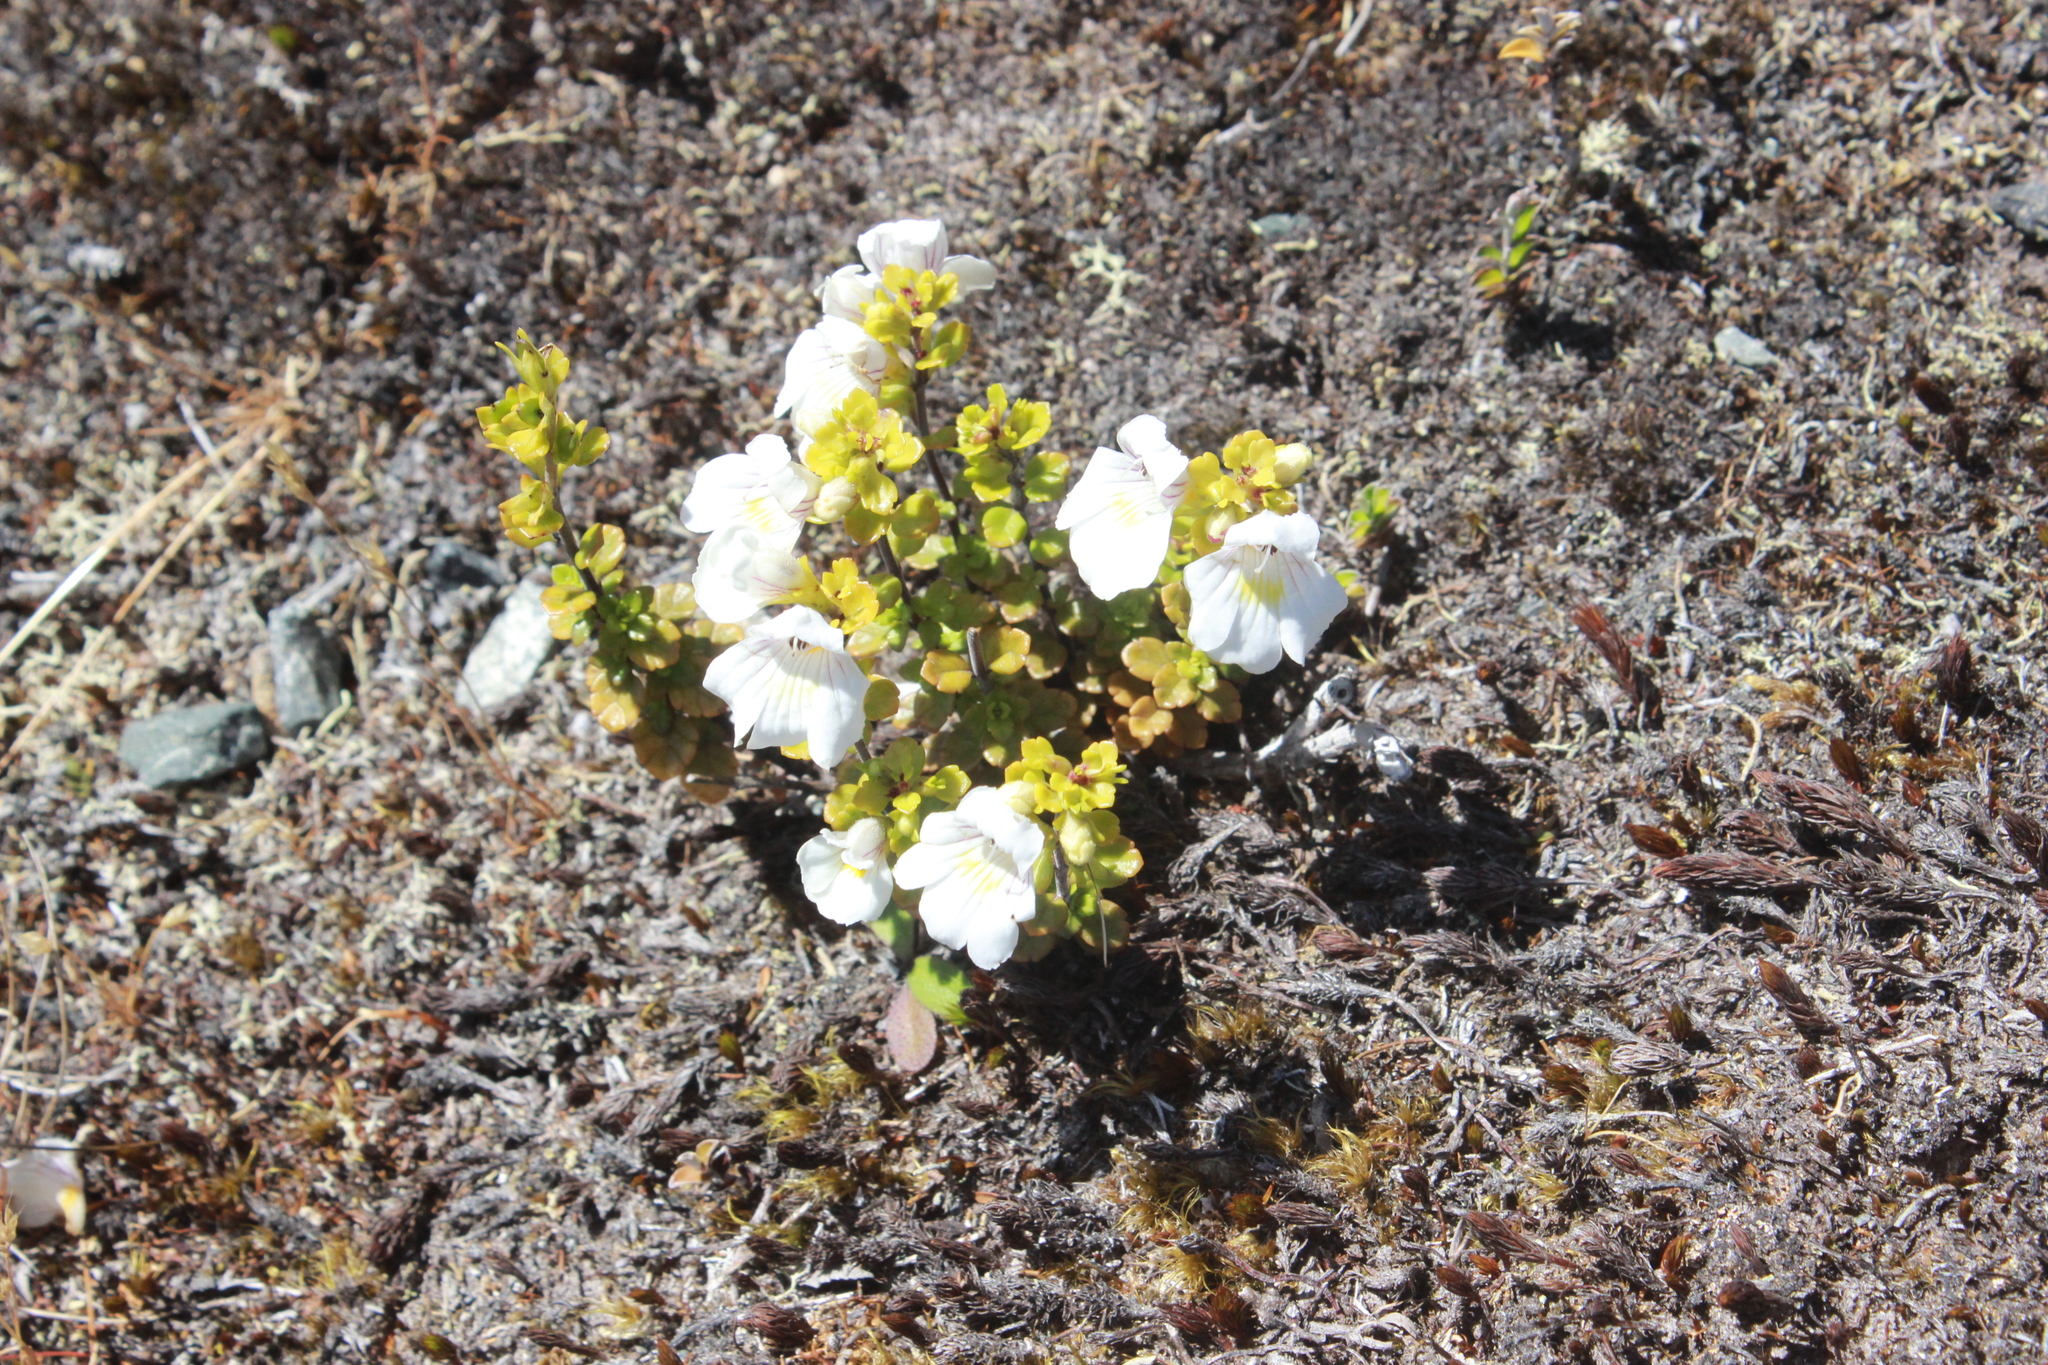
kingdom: Plantae
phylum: Tracheophyta
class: Magnoliopsida
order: Lamiales
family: Orobanchaceae
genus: Euphrasia
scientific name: Euphrasia cuneata
